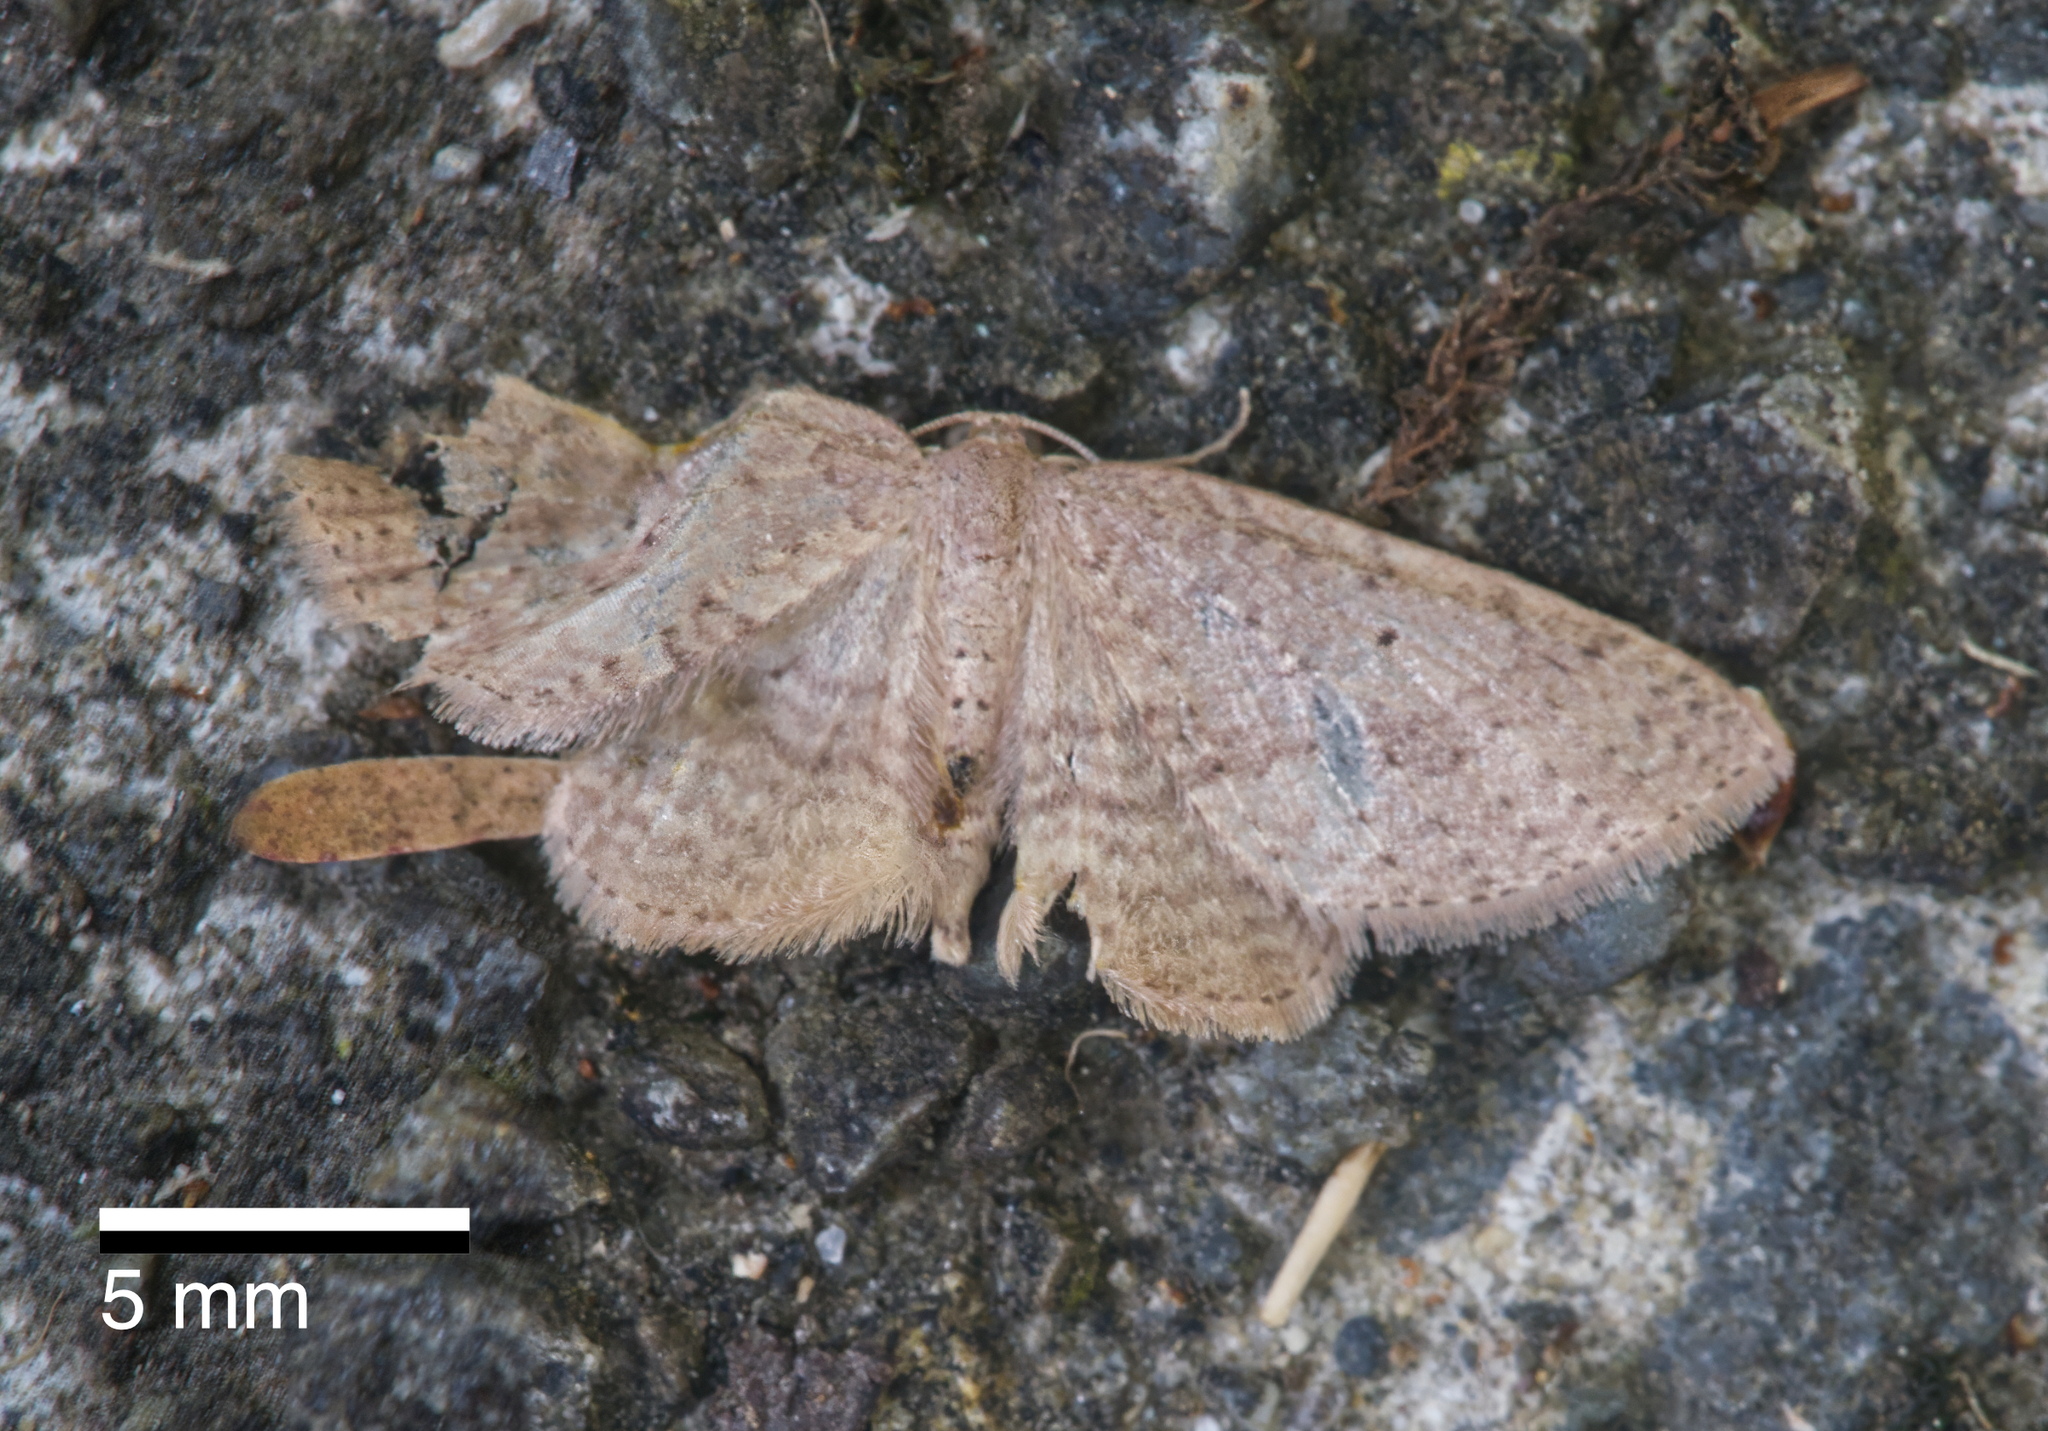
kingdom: Animalia
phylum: Arthropoda
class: Insecta
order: Lepidoptera
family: Geometridae
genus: Poecilasthena
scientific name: Poecilasthena schistaria
